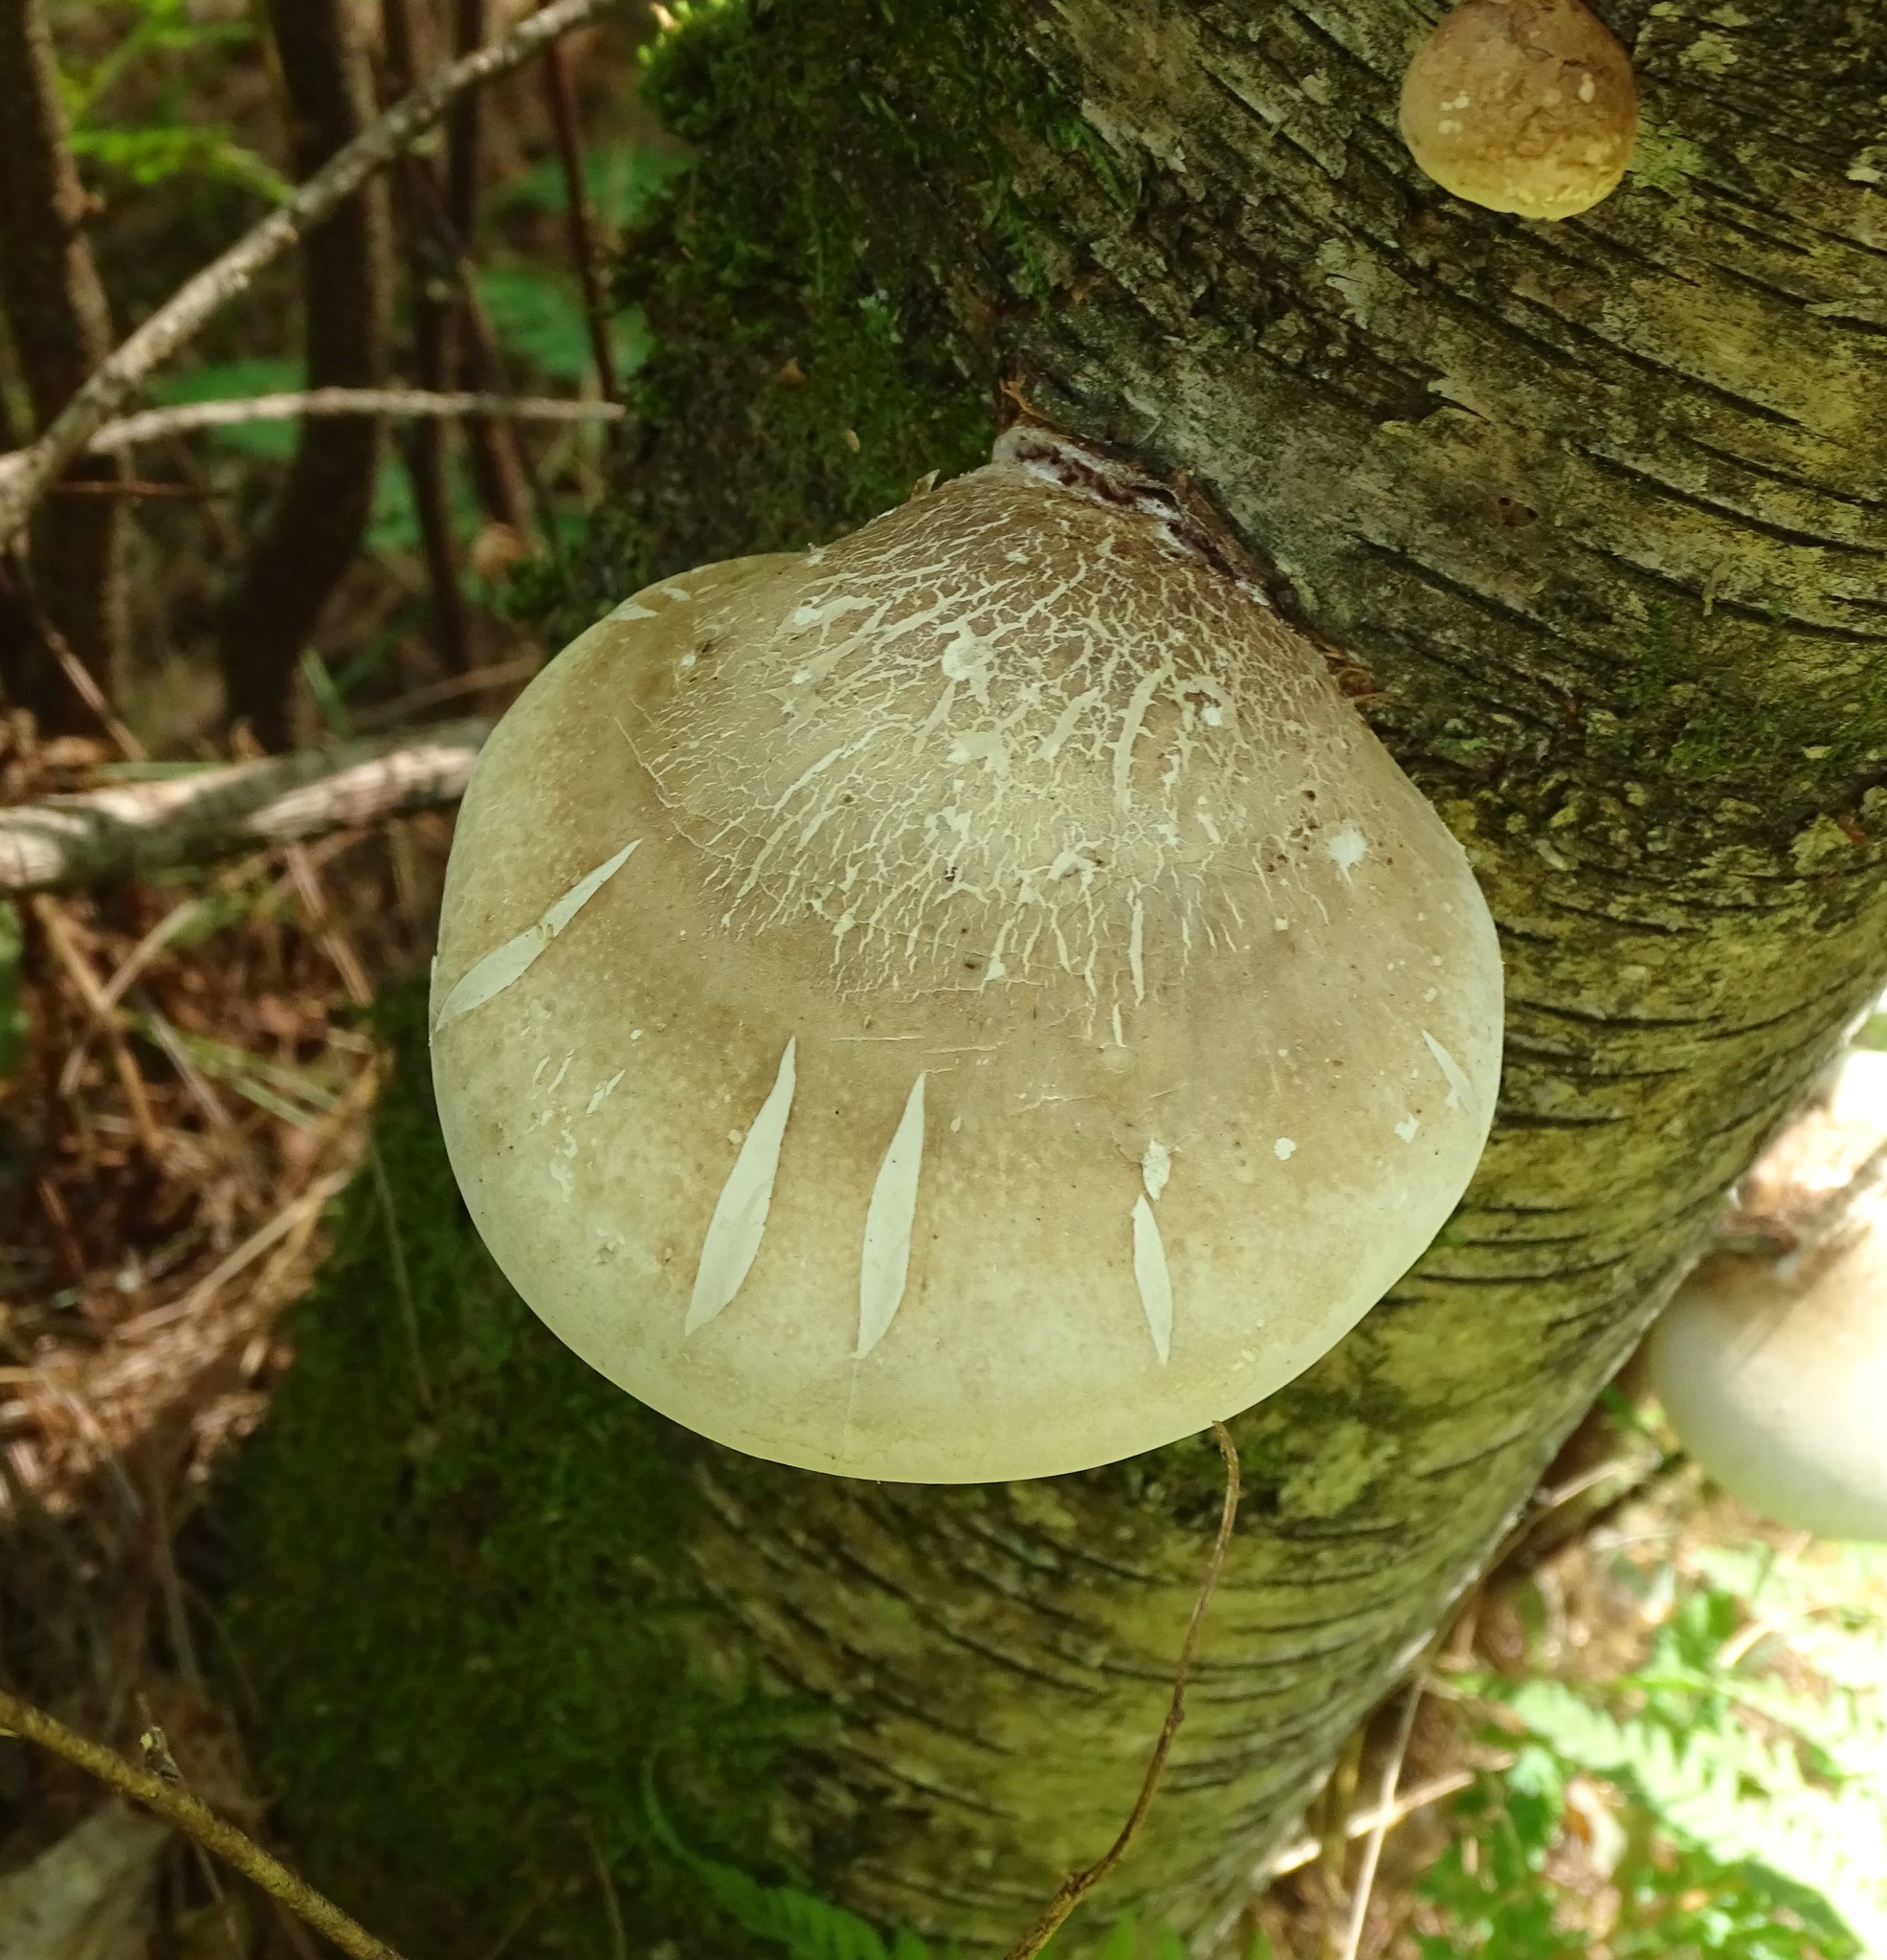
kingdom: Fungi
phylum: Basidiomycota
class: Agaricomycetes
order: Polyporales
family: Fomitopsidaceae
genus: Fomitopsis
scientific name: Fomitopsis betulina
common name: Birch polypore
